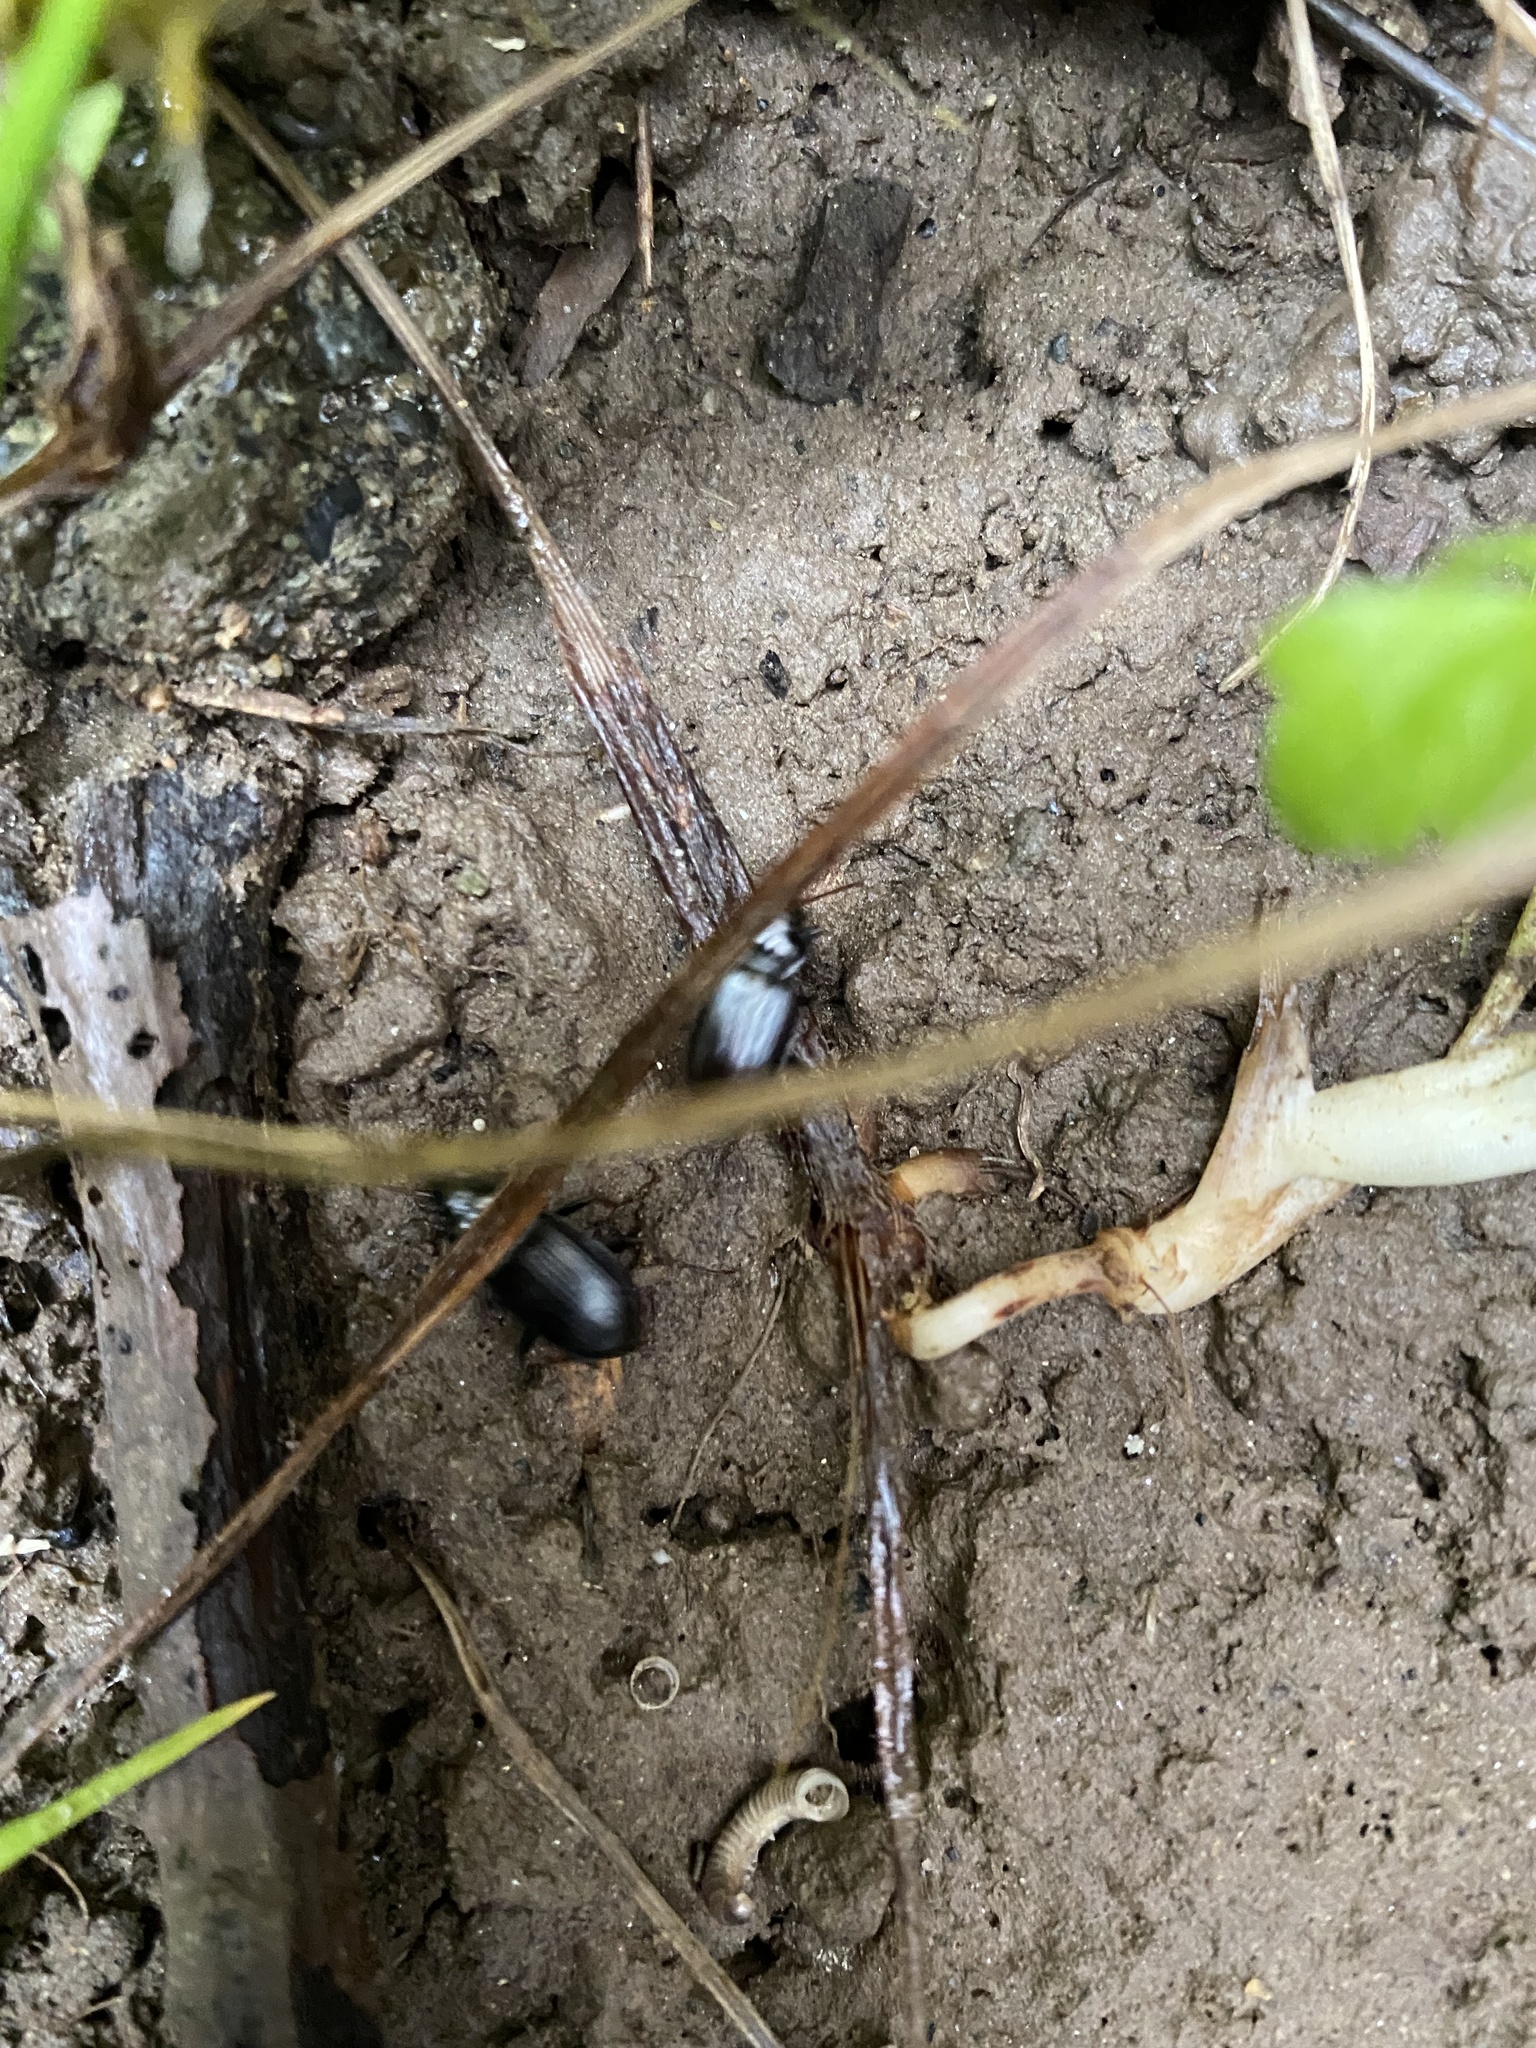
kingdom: Animalia
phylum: Arthropoda
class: Insecta
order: Coleoptera
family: Carabidae
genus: Nebria
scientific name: Nebria brevicollis
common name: Short-necked gazelle beetle
